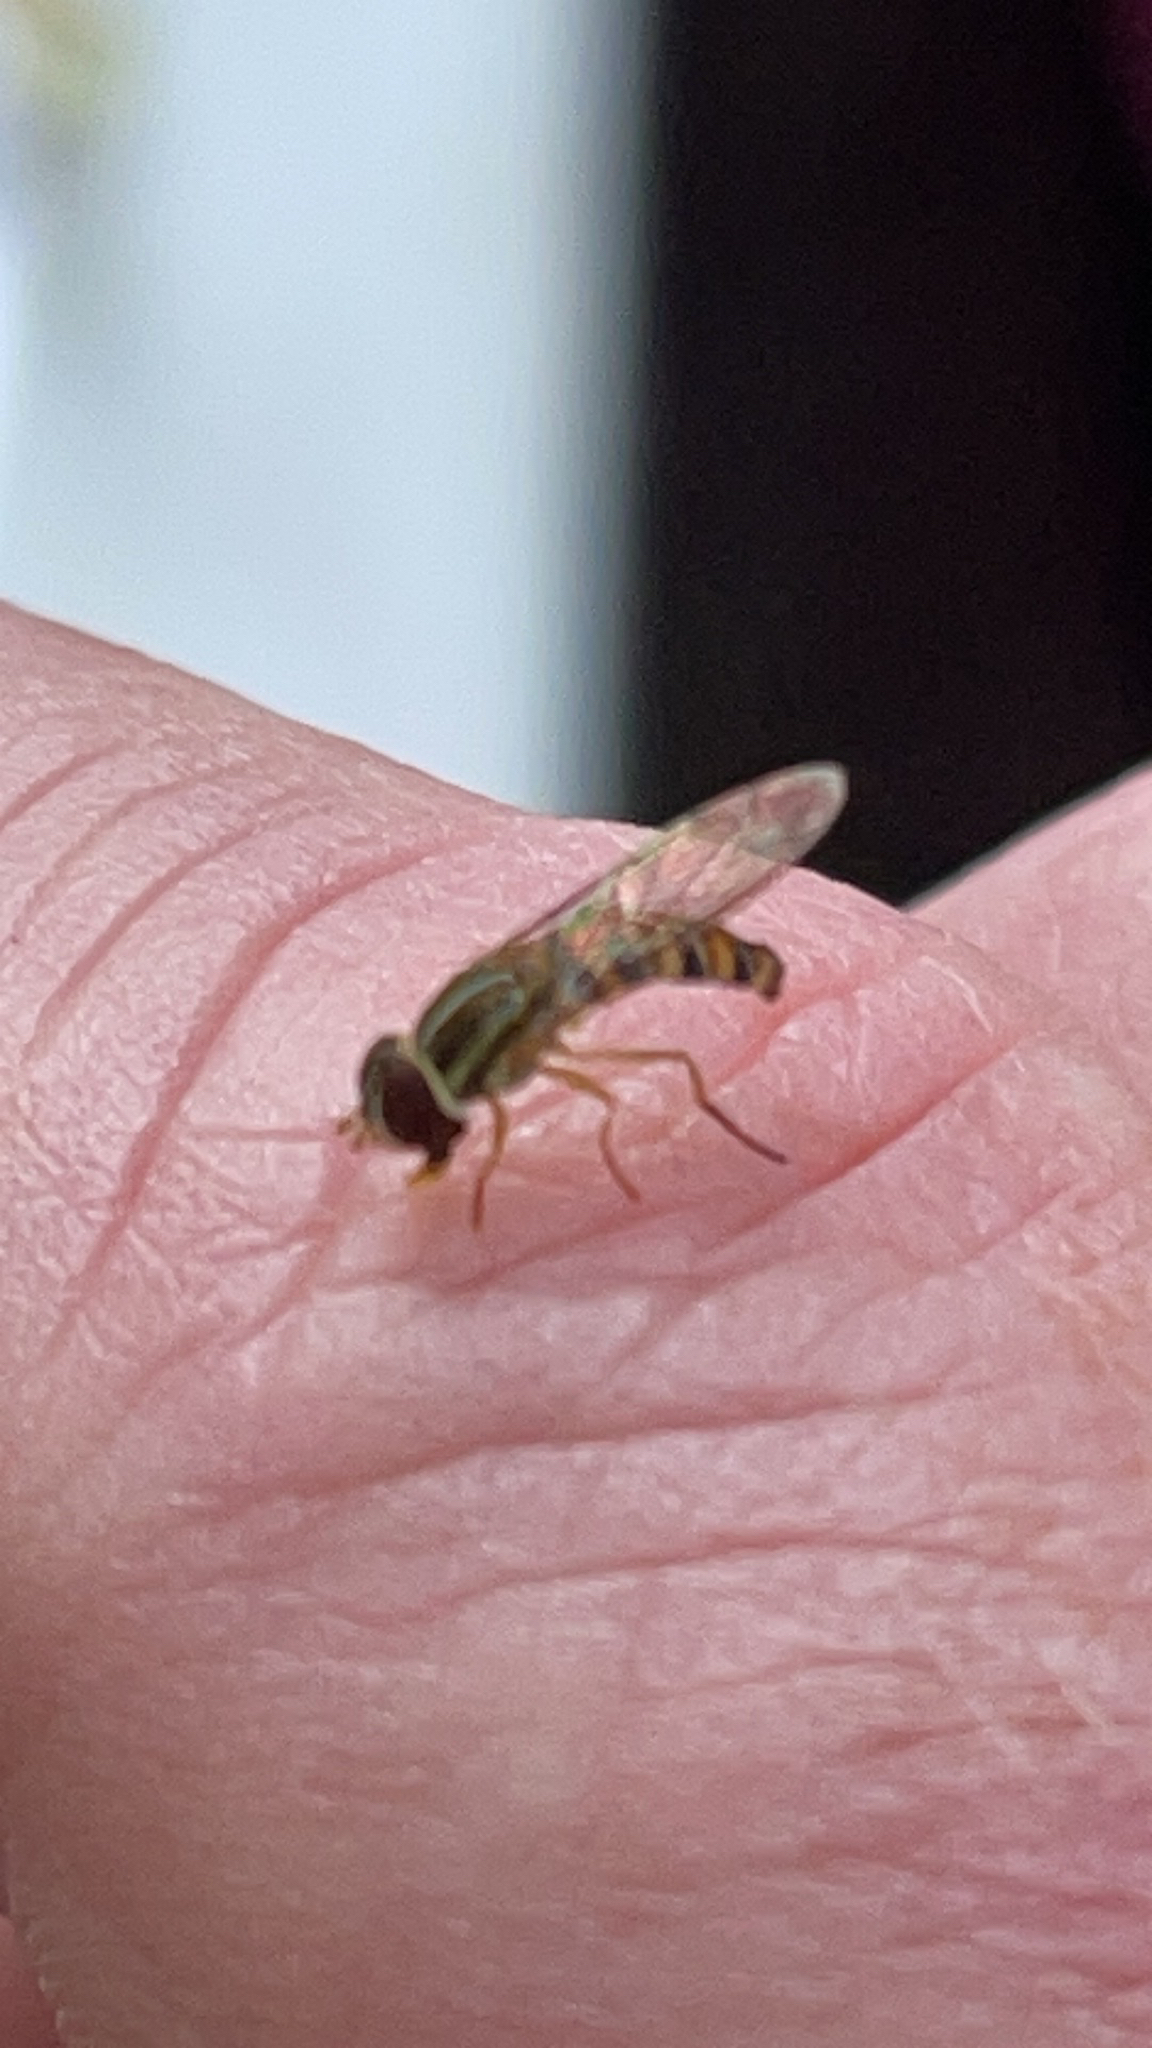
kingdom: Animalia
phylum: Arthropoda
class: Insecta
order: Diptera
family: Syrphidae
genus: Toxomerus
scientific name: Toxomerus politus
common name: Maize calligrapher
